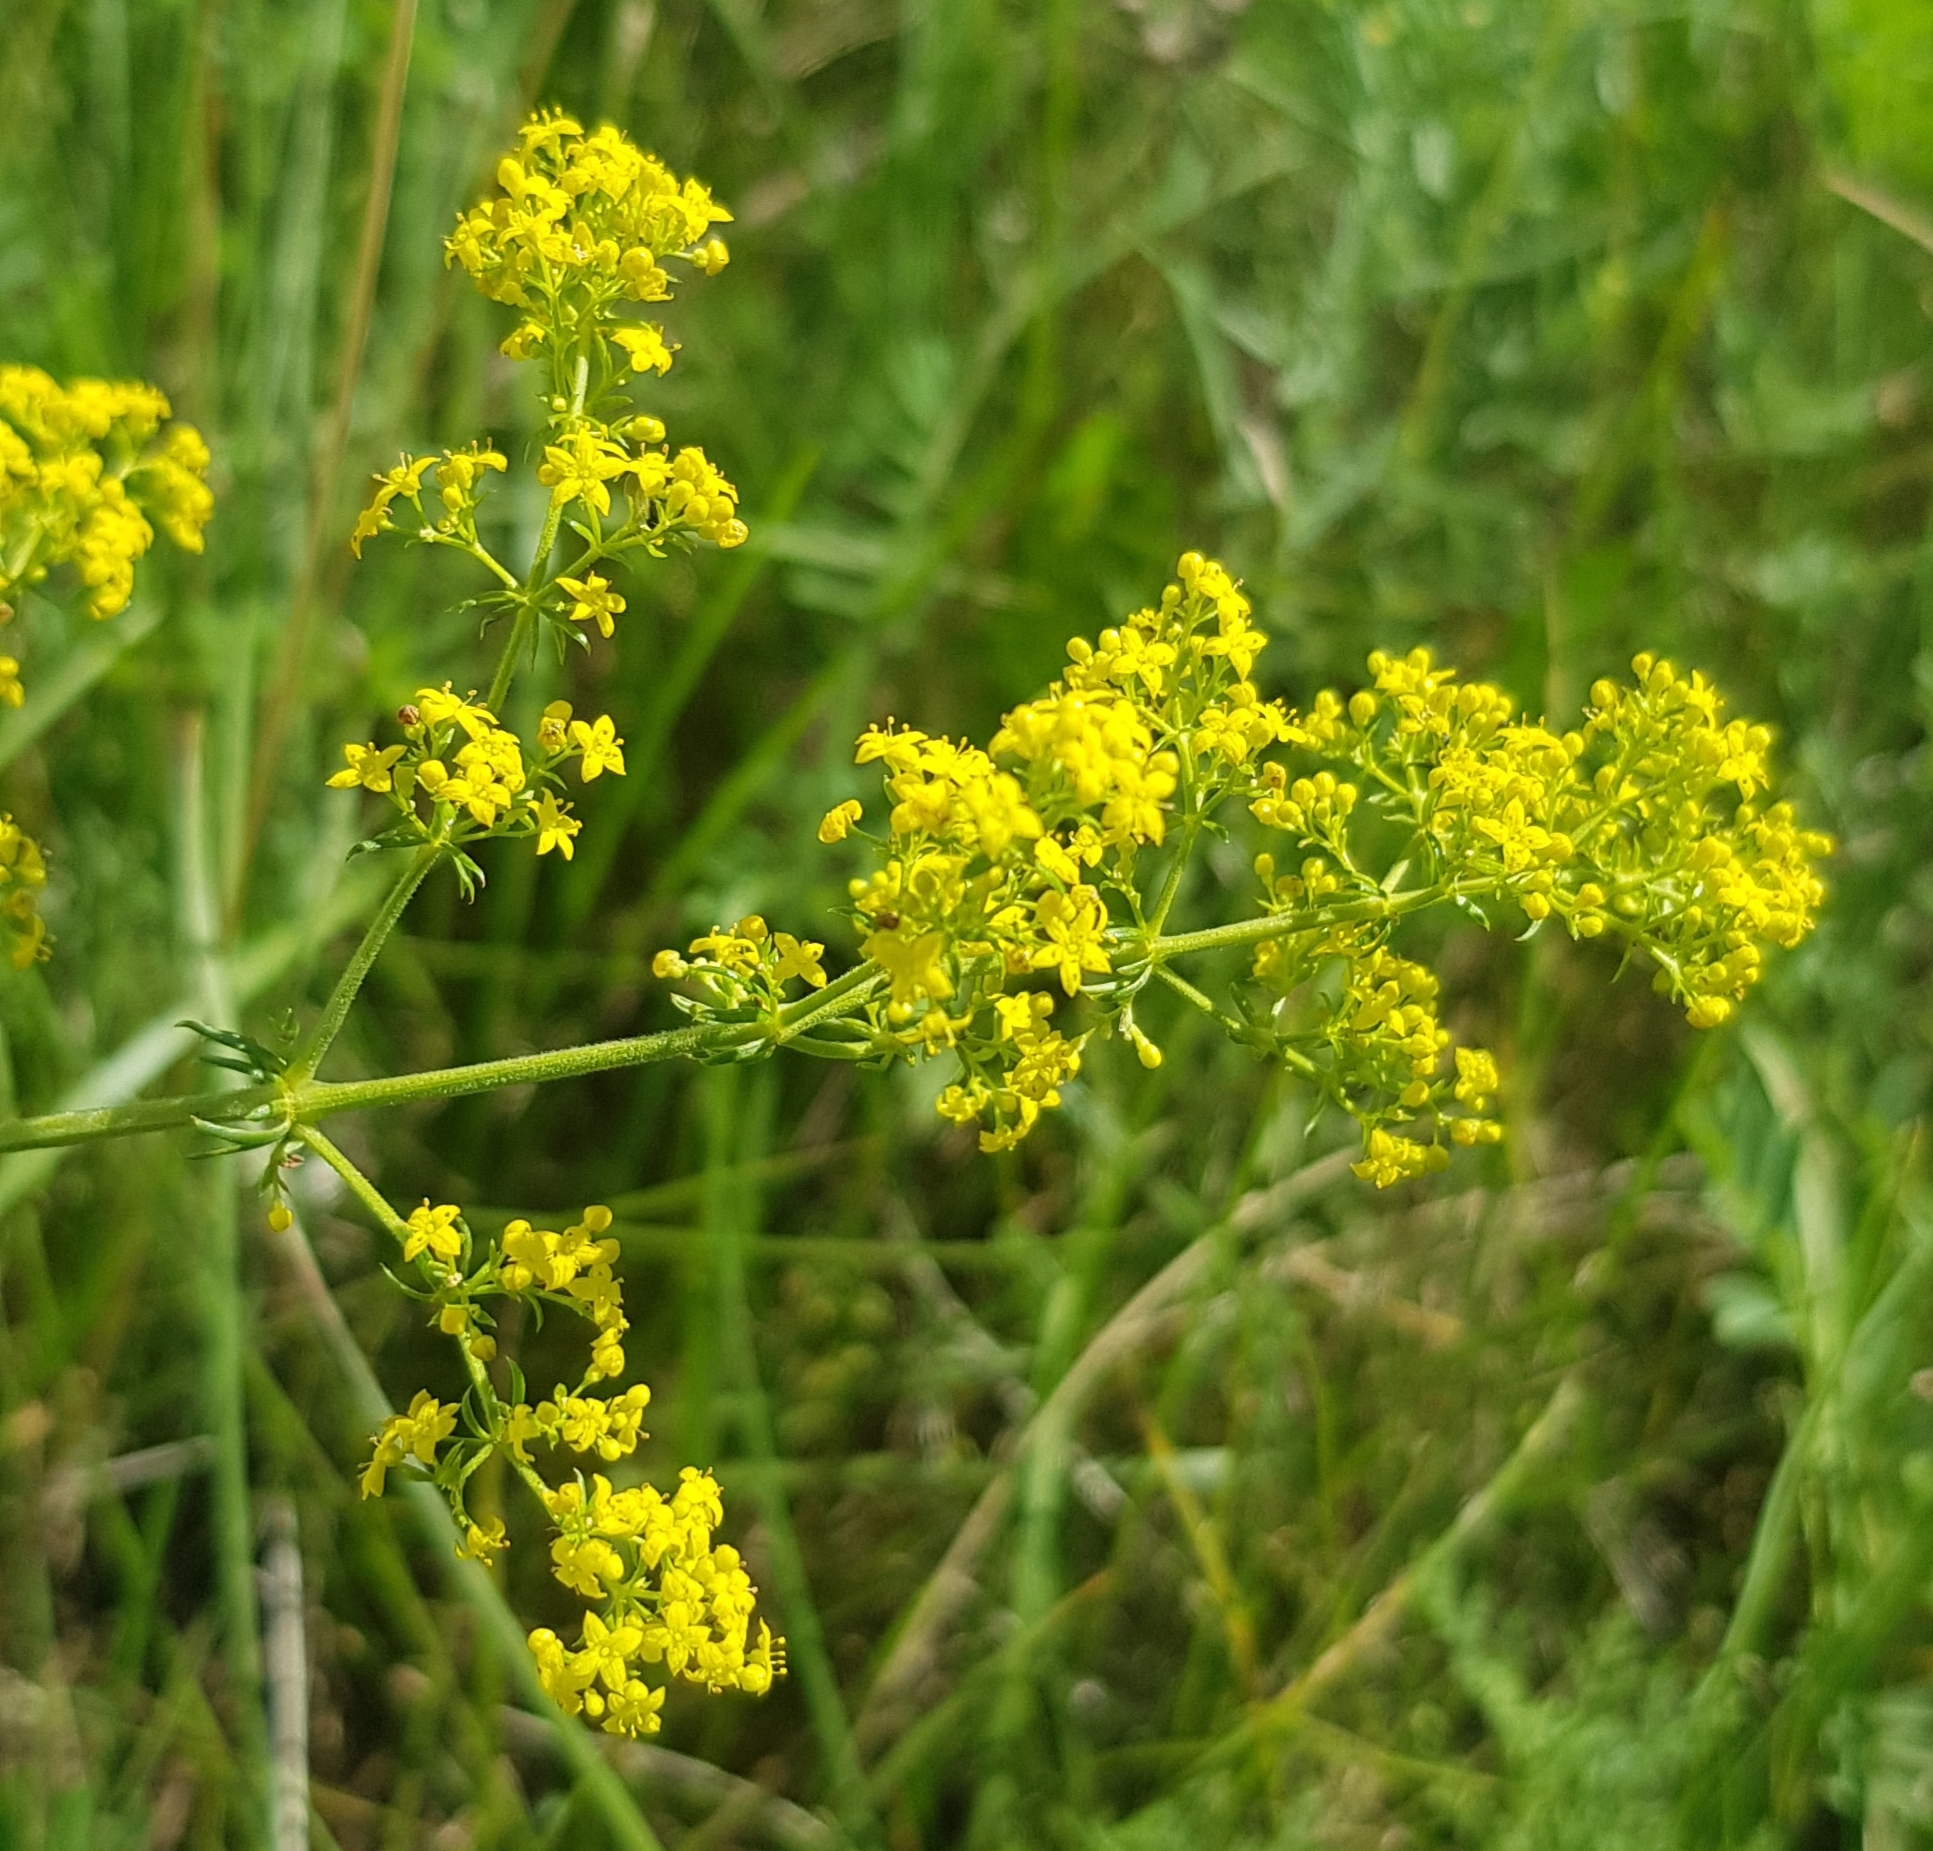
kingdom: Plantae
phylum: Tracheophyta
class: Magnoliopsida
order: Gentianales
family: Rubiaceae
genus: Galium
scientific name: Galium verum
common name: Lady's bedstraw
